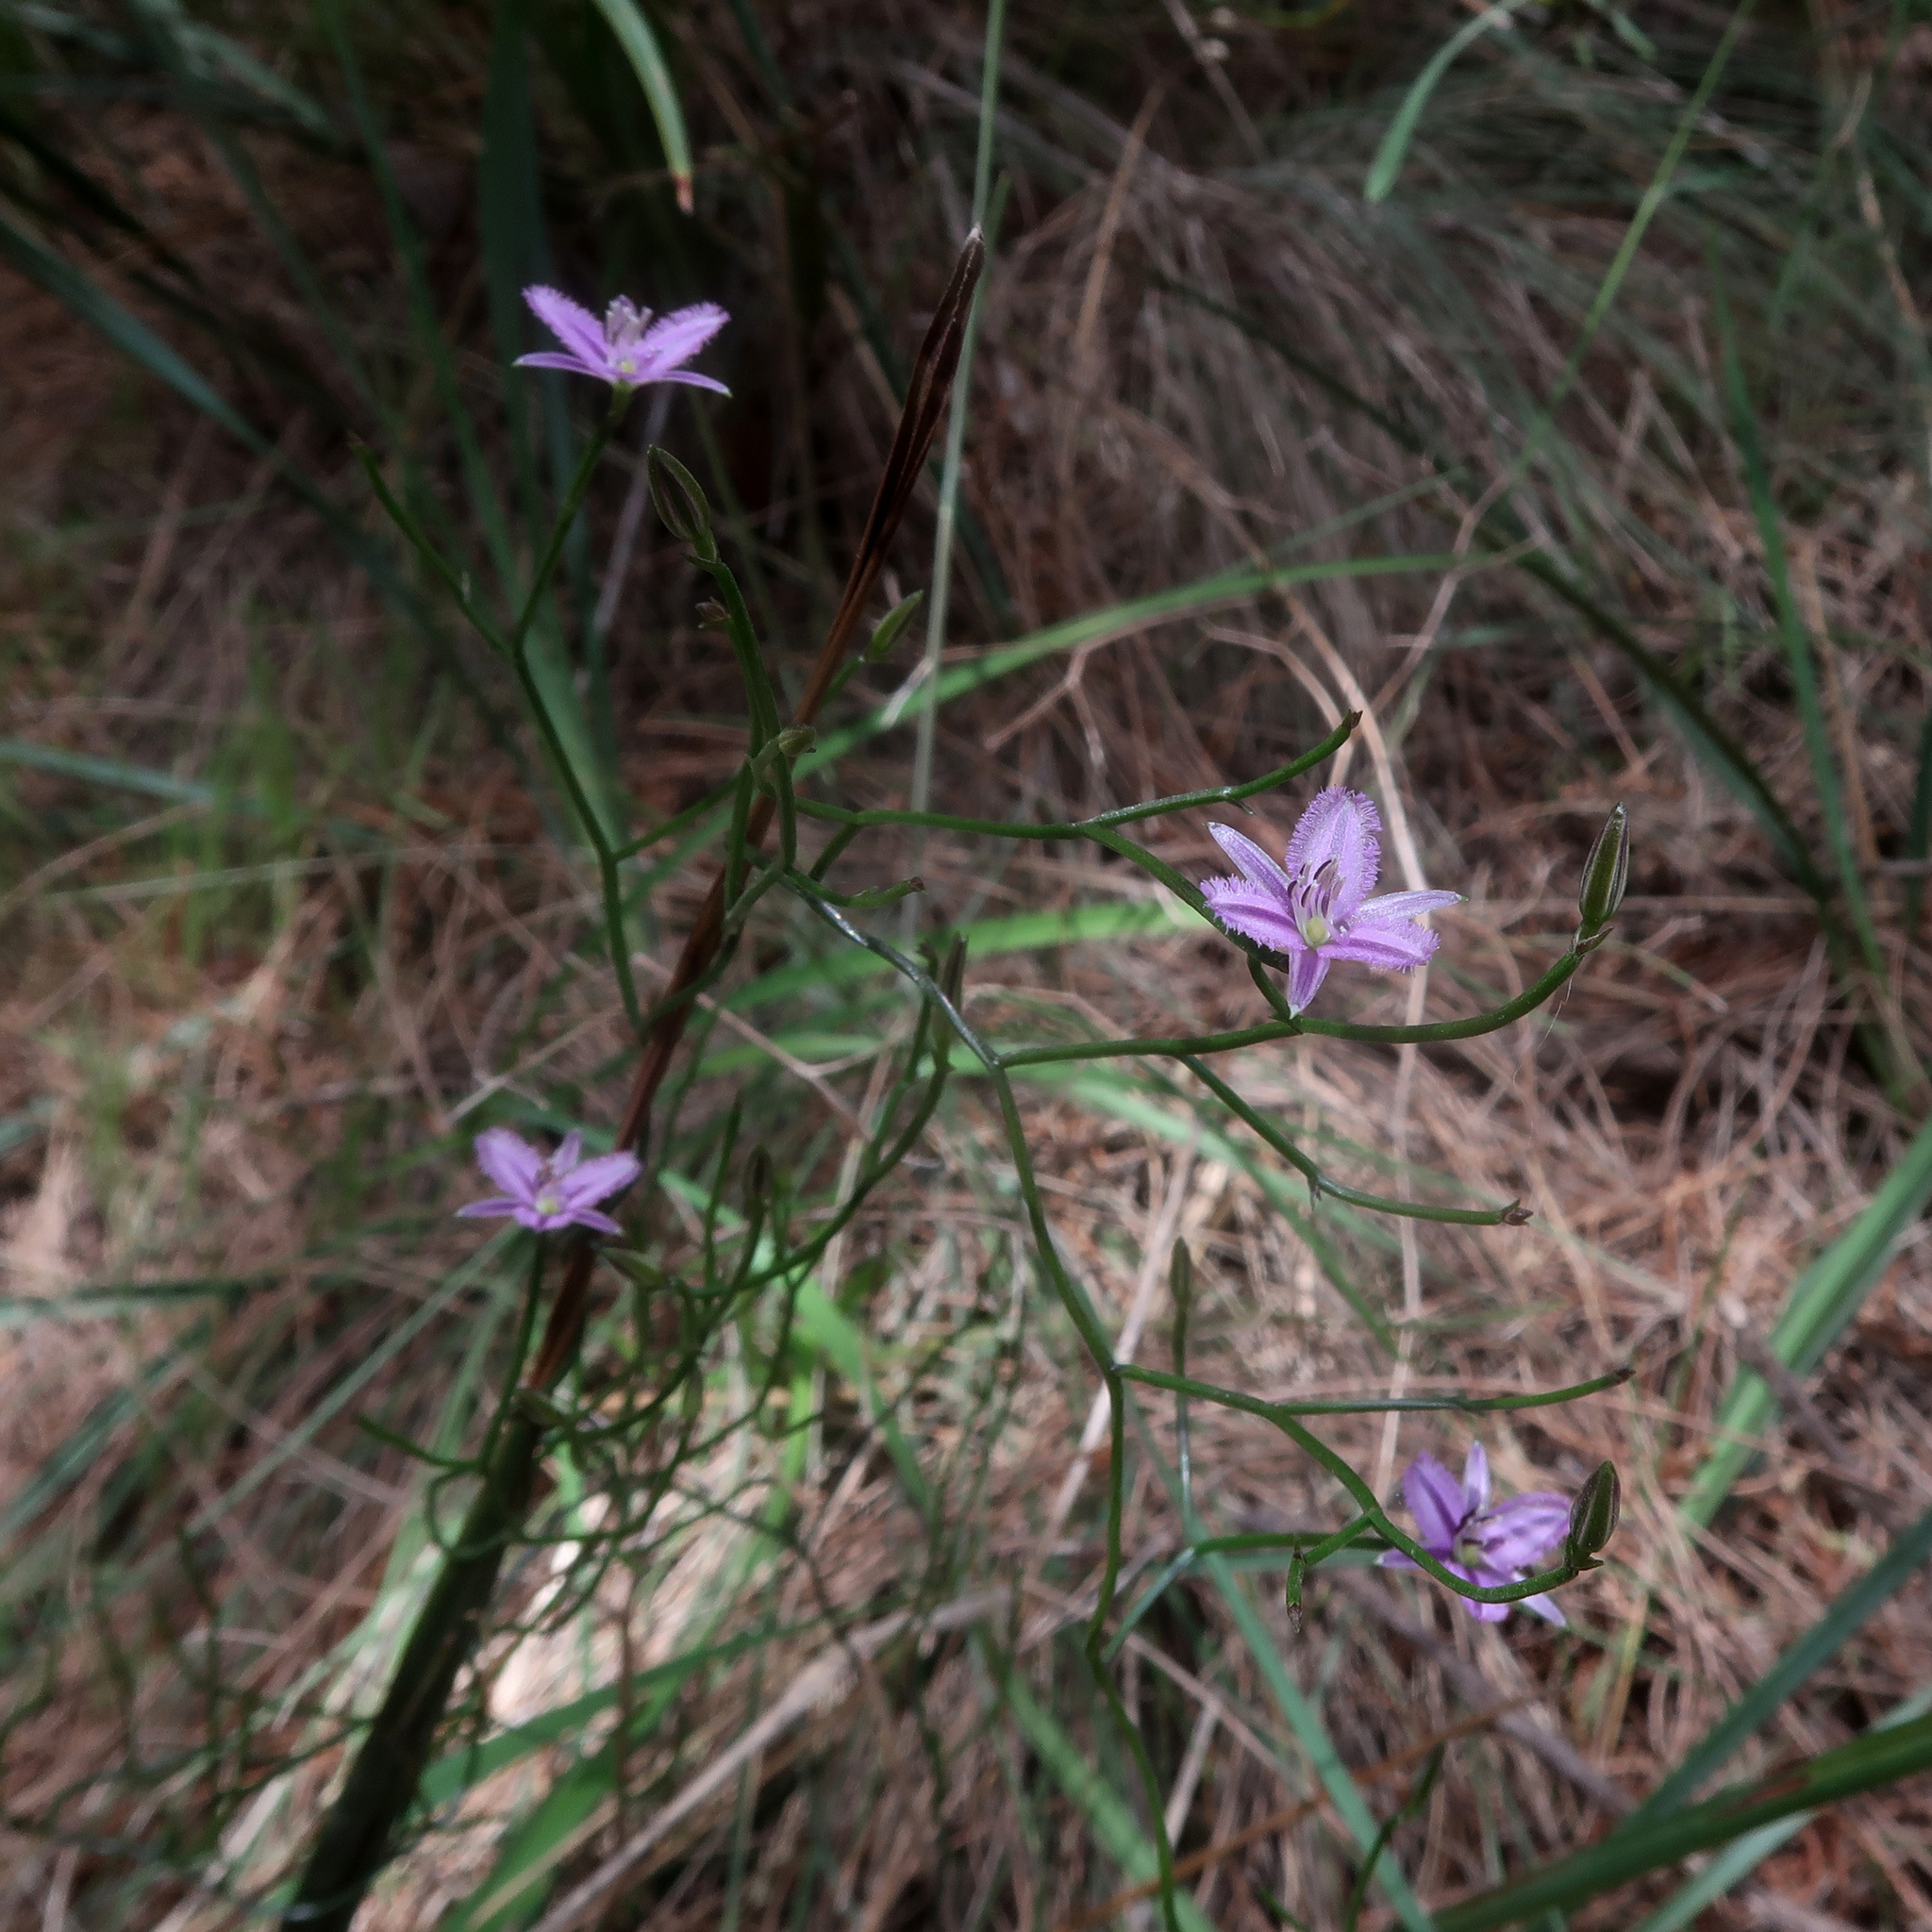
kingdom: Plantae
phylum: Tracheophyta
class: Liliopsida
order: Asparagales
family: Asparagaceae
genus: Thysanotus
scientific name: Thysanotus patersonii
